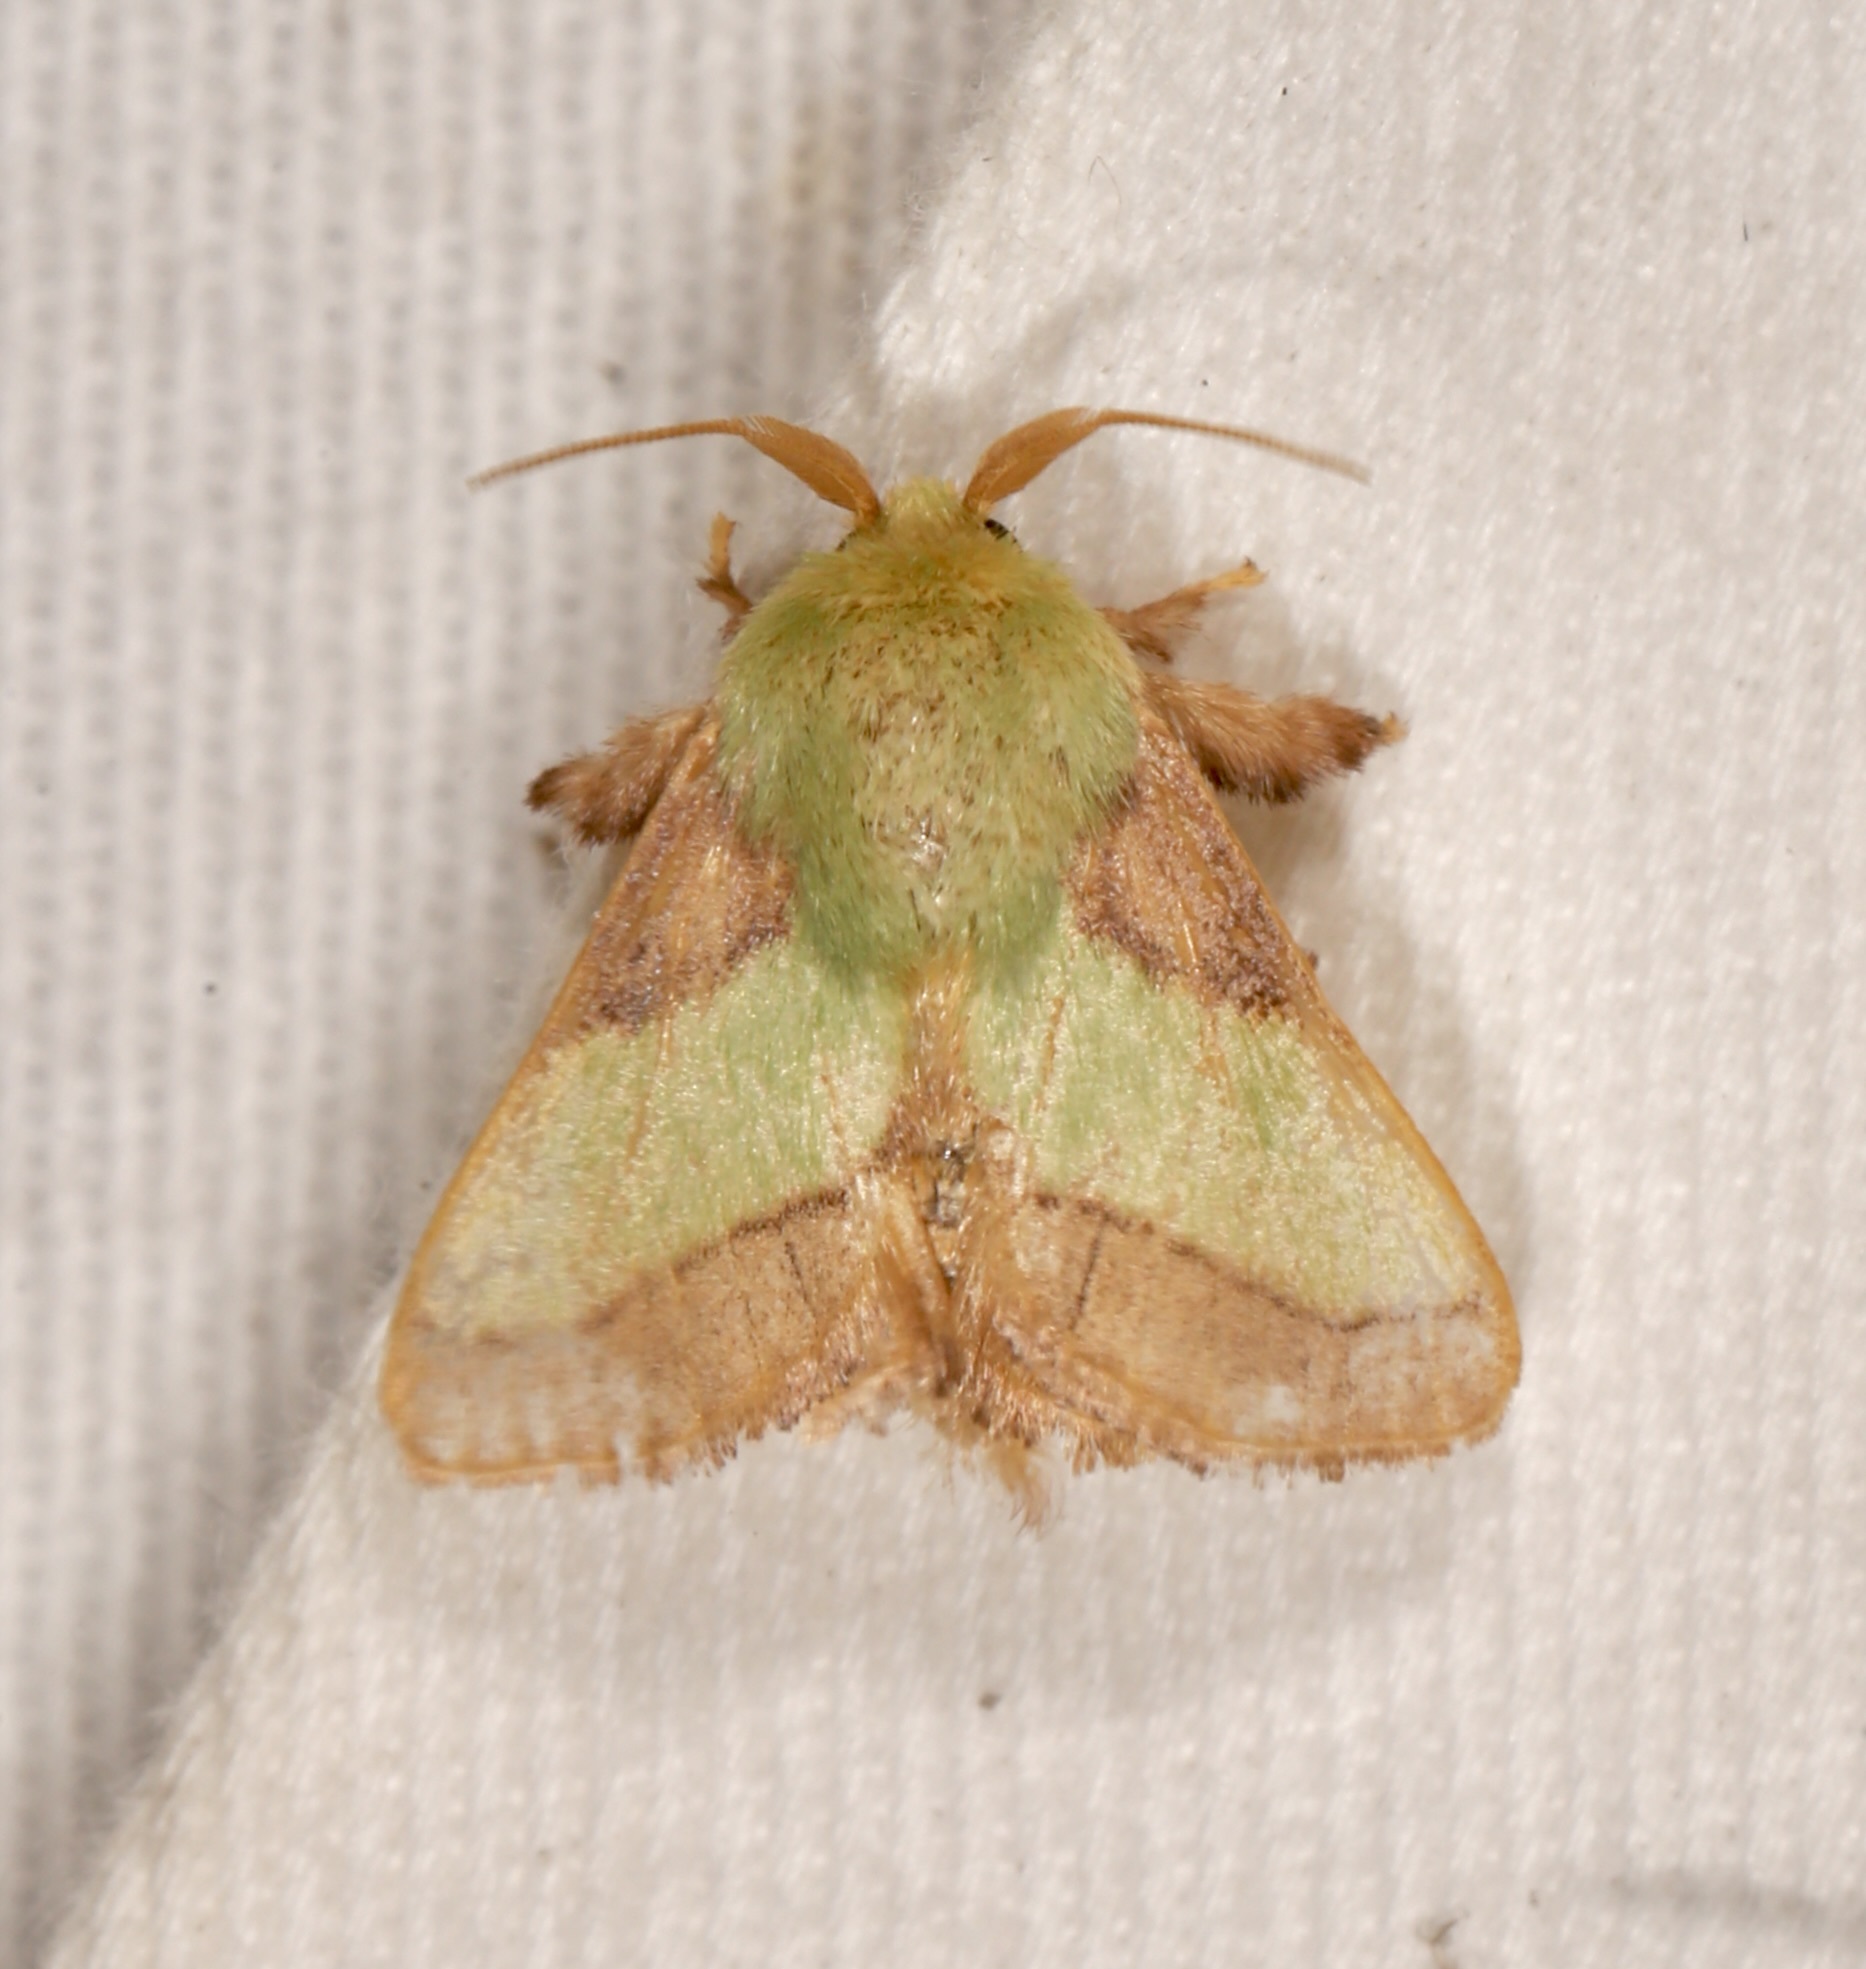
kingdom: Animalia
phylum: Arthropoda
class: Insecta
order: Lepidoptera
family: Limacodidae
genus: Parasa
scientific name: Parasa chloris
